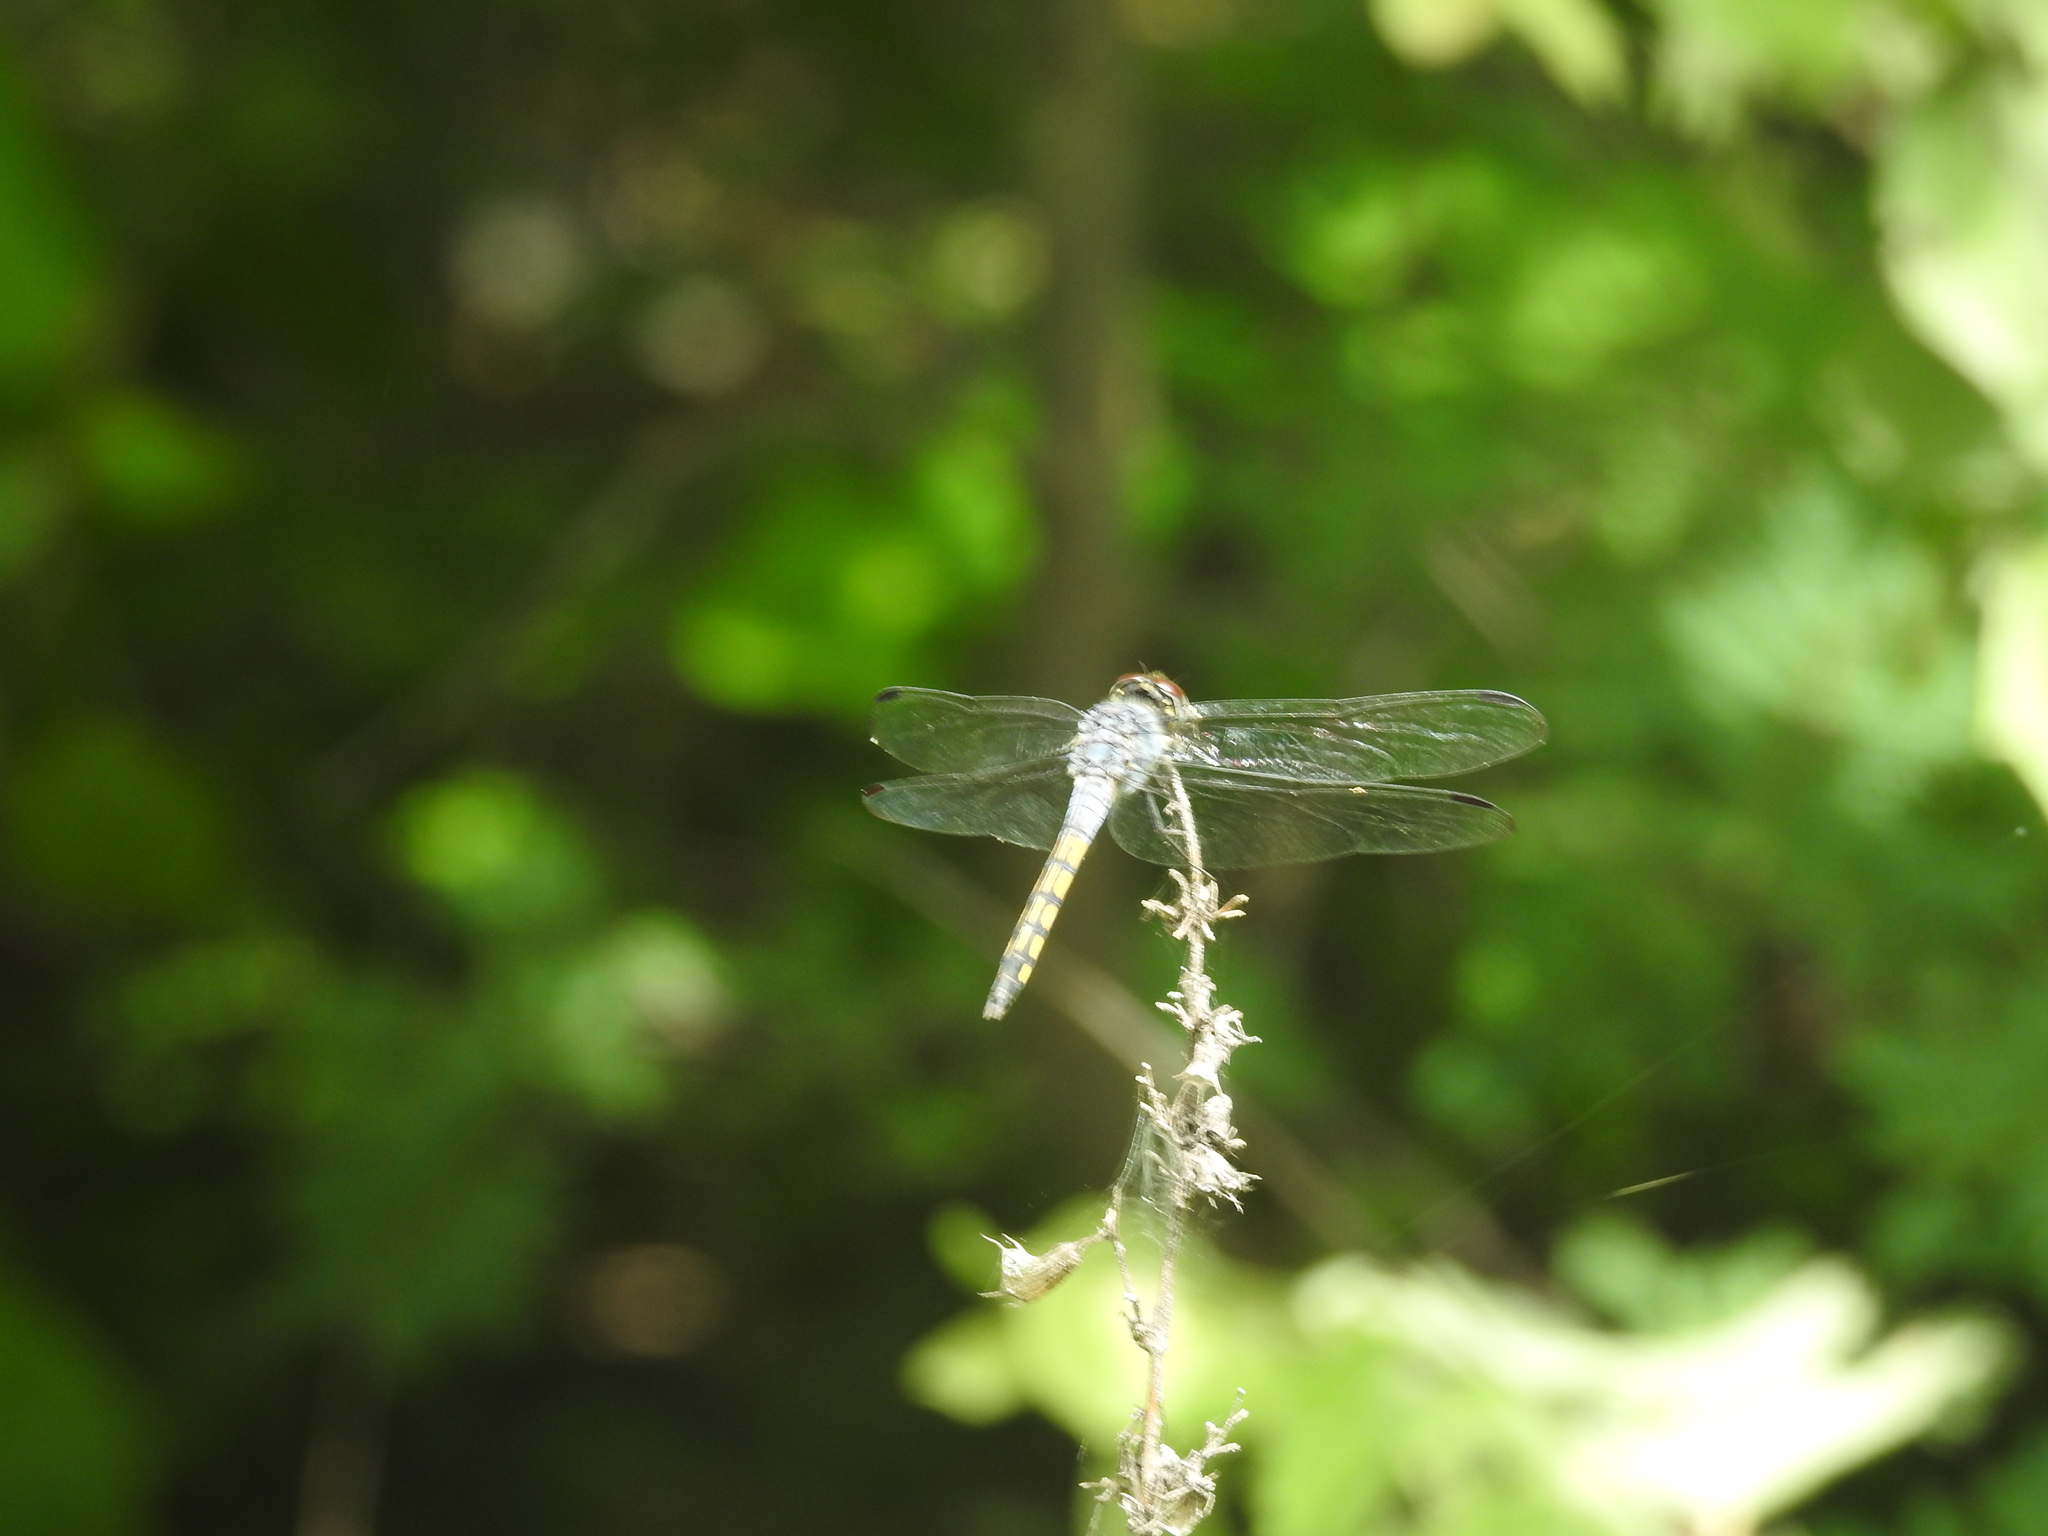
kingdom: Animalia
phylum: Arthropoda
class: Insecta
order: Odonata
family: Libellulidae
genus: Potamarcha
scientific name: Potamarcha congener
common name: Blue chaser
